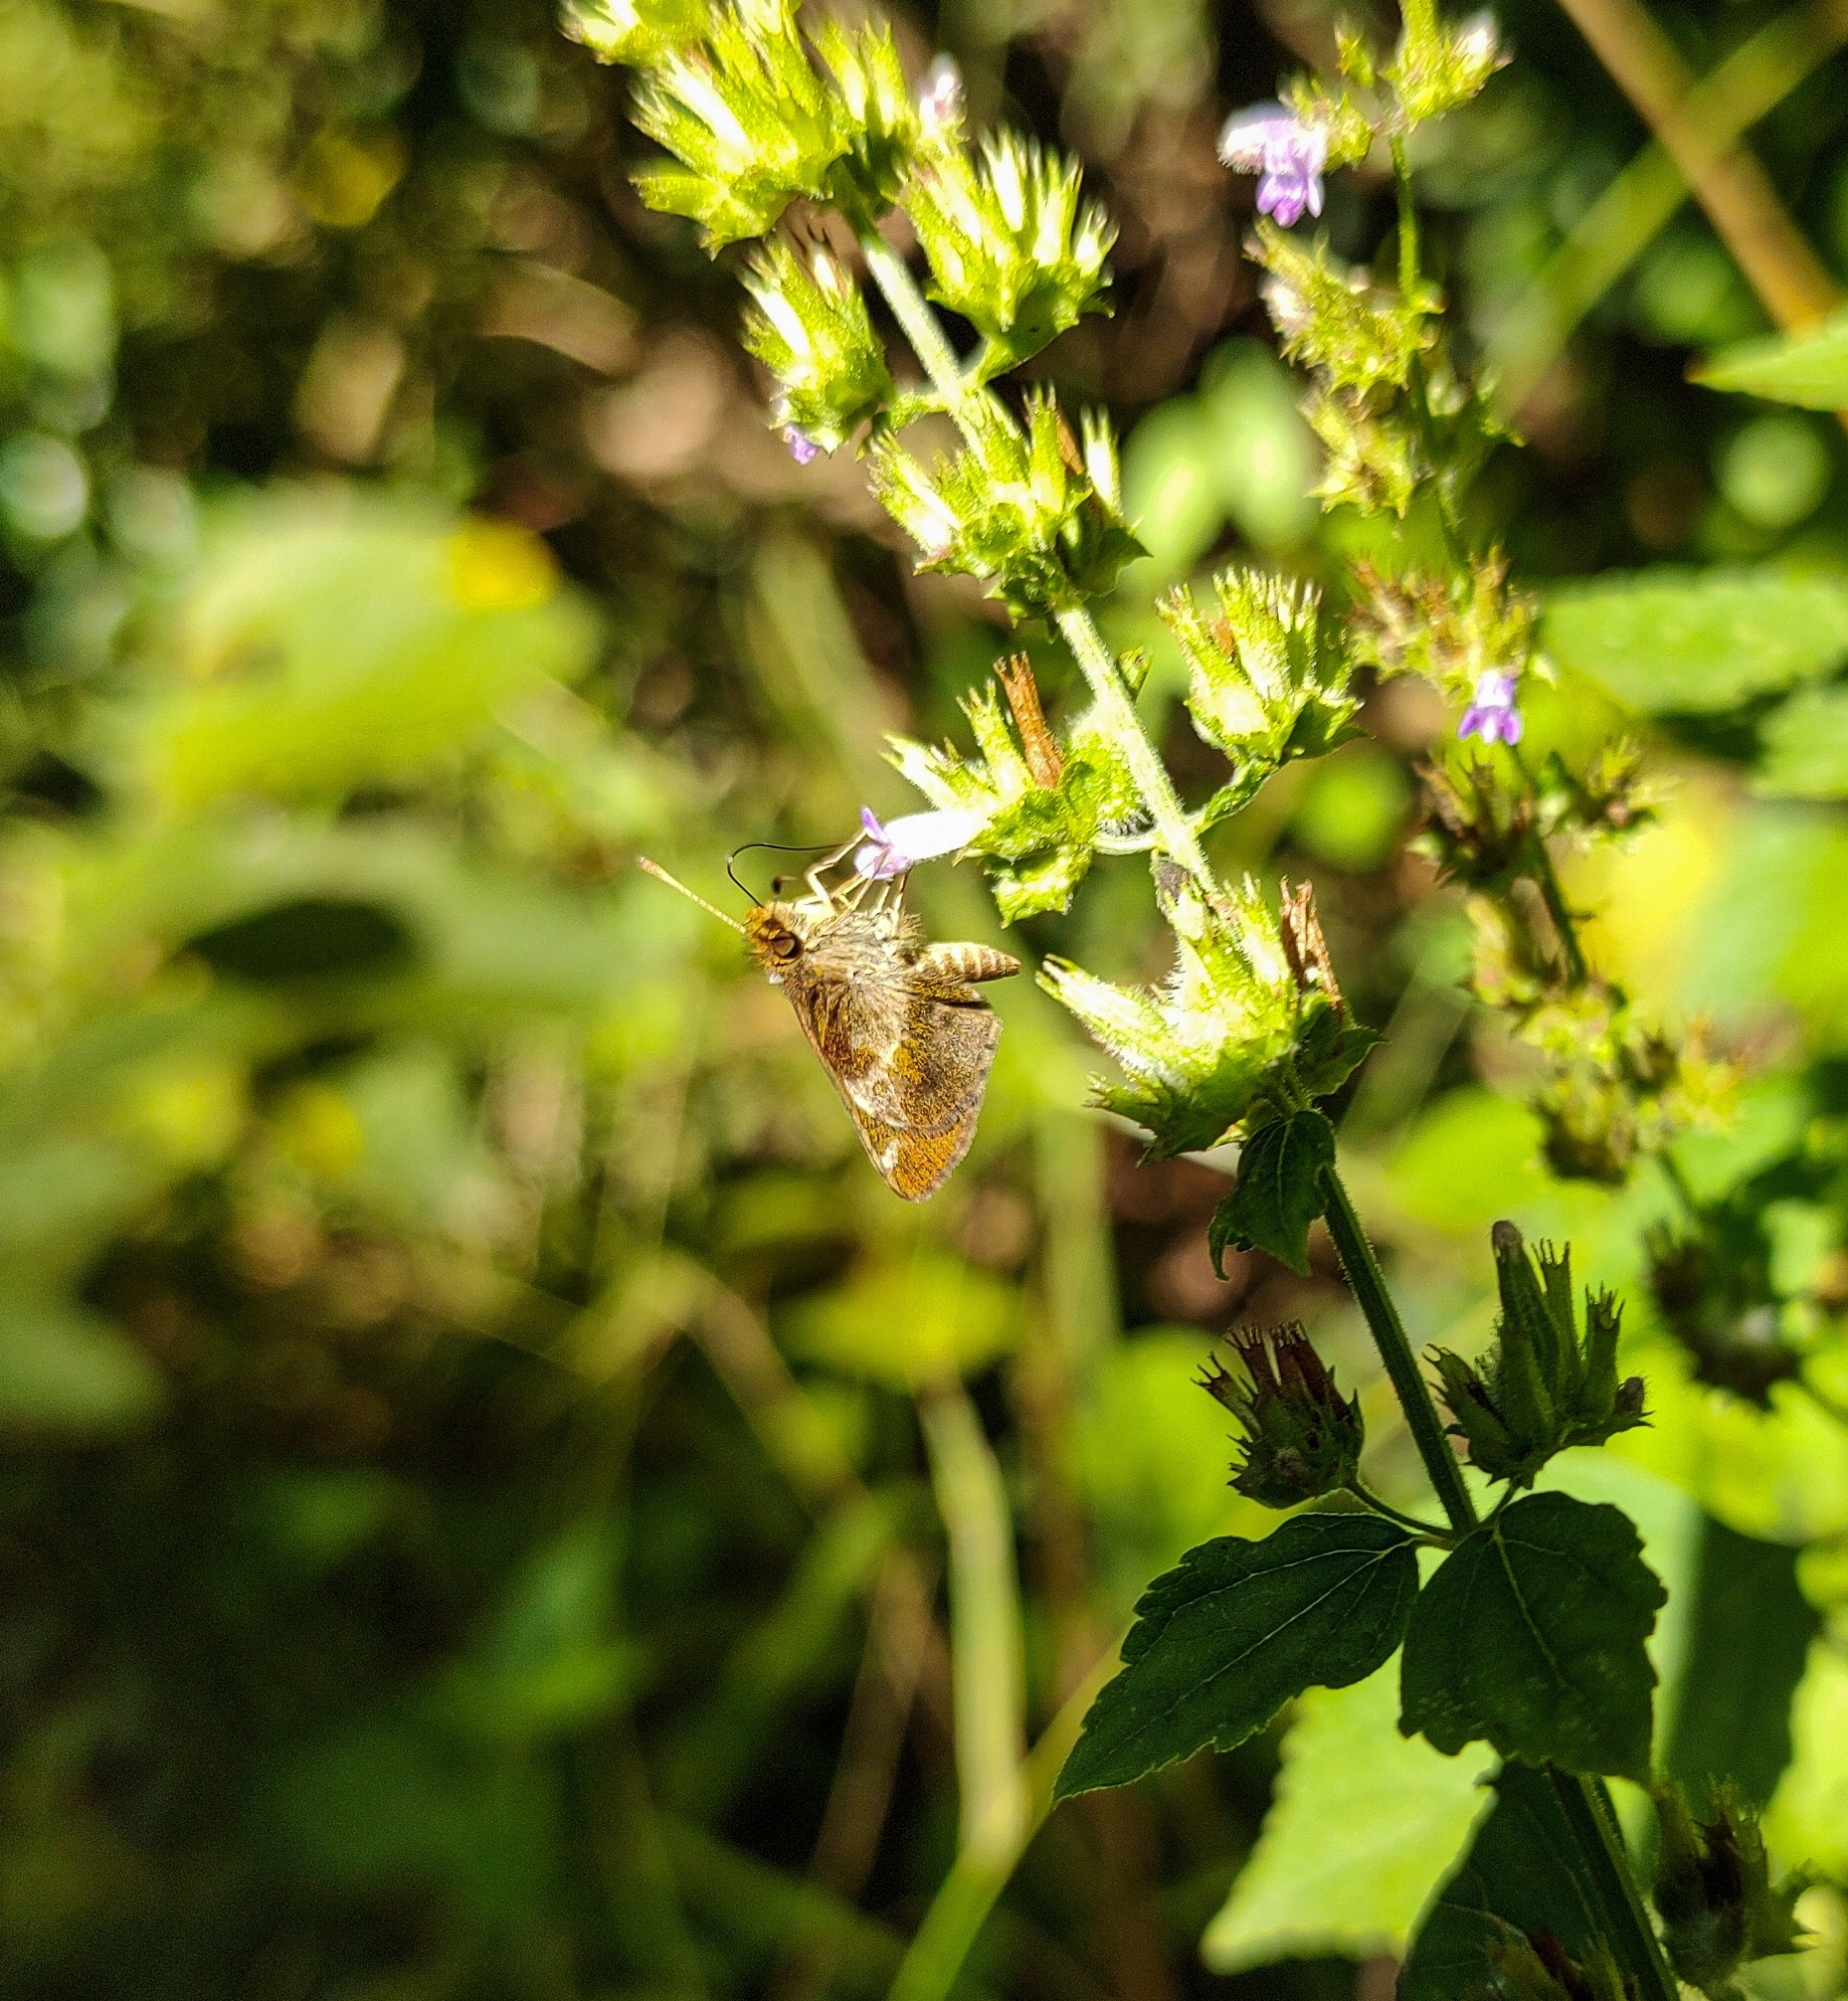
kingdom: Animalia
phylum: Arthropoda
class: Insecta
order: Lepidoptera
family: Hesperiidae
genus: Callimormus
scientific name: Callimormus
